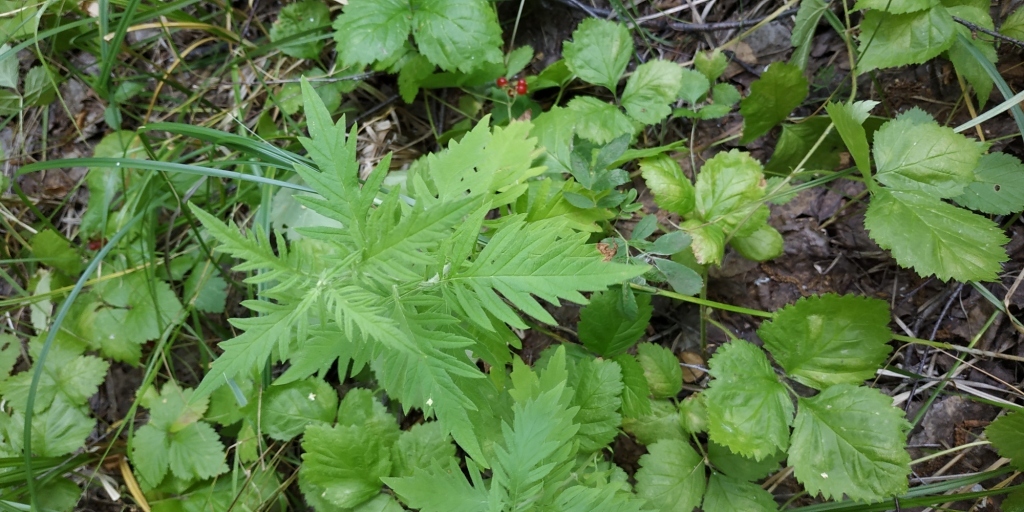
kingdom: Plantae
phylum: Tracheophyta
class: Magnoliopsida
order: Lamiales
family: Lamiaceae
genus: Lycopus
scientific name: Lycopus exaltatus
